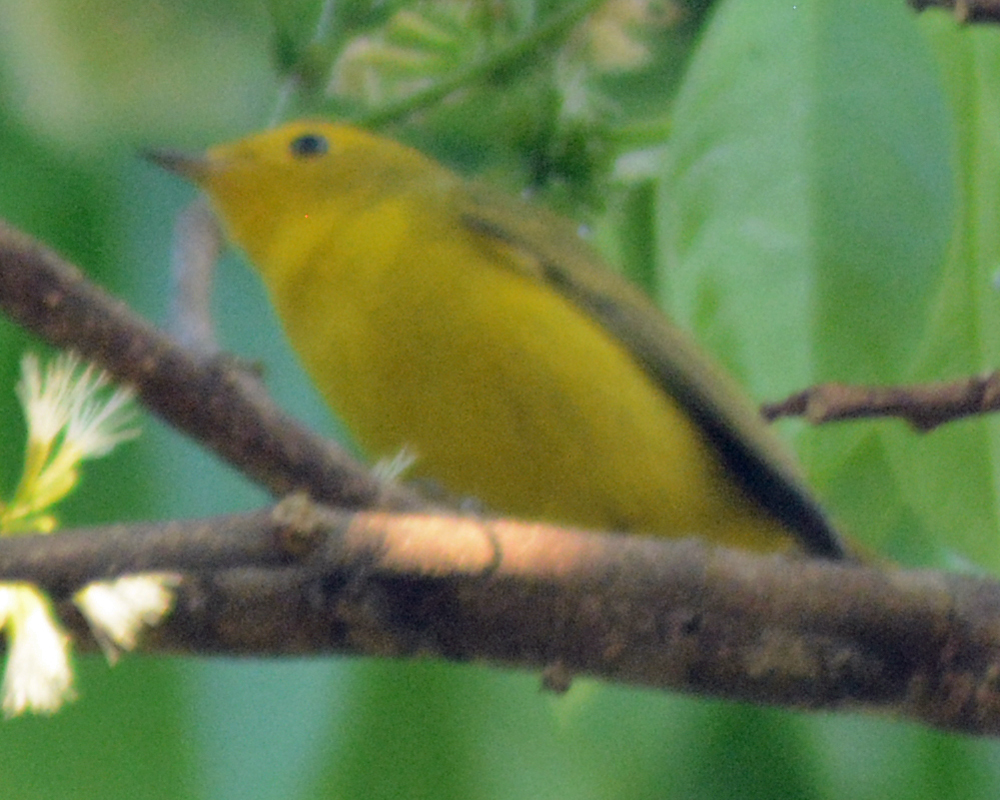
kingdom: Animalia
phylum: Chordata
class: Aves
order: Passeriformes
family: Parulidae
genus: Cardellina
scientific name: Cardellina pusilla
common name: Wilson's warbler
